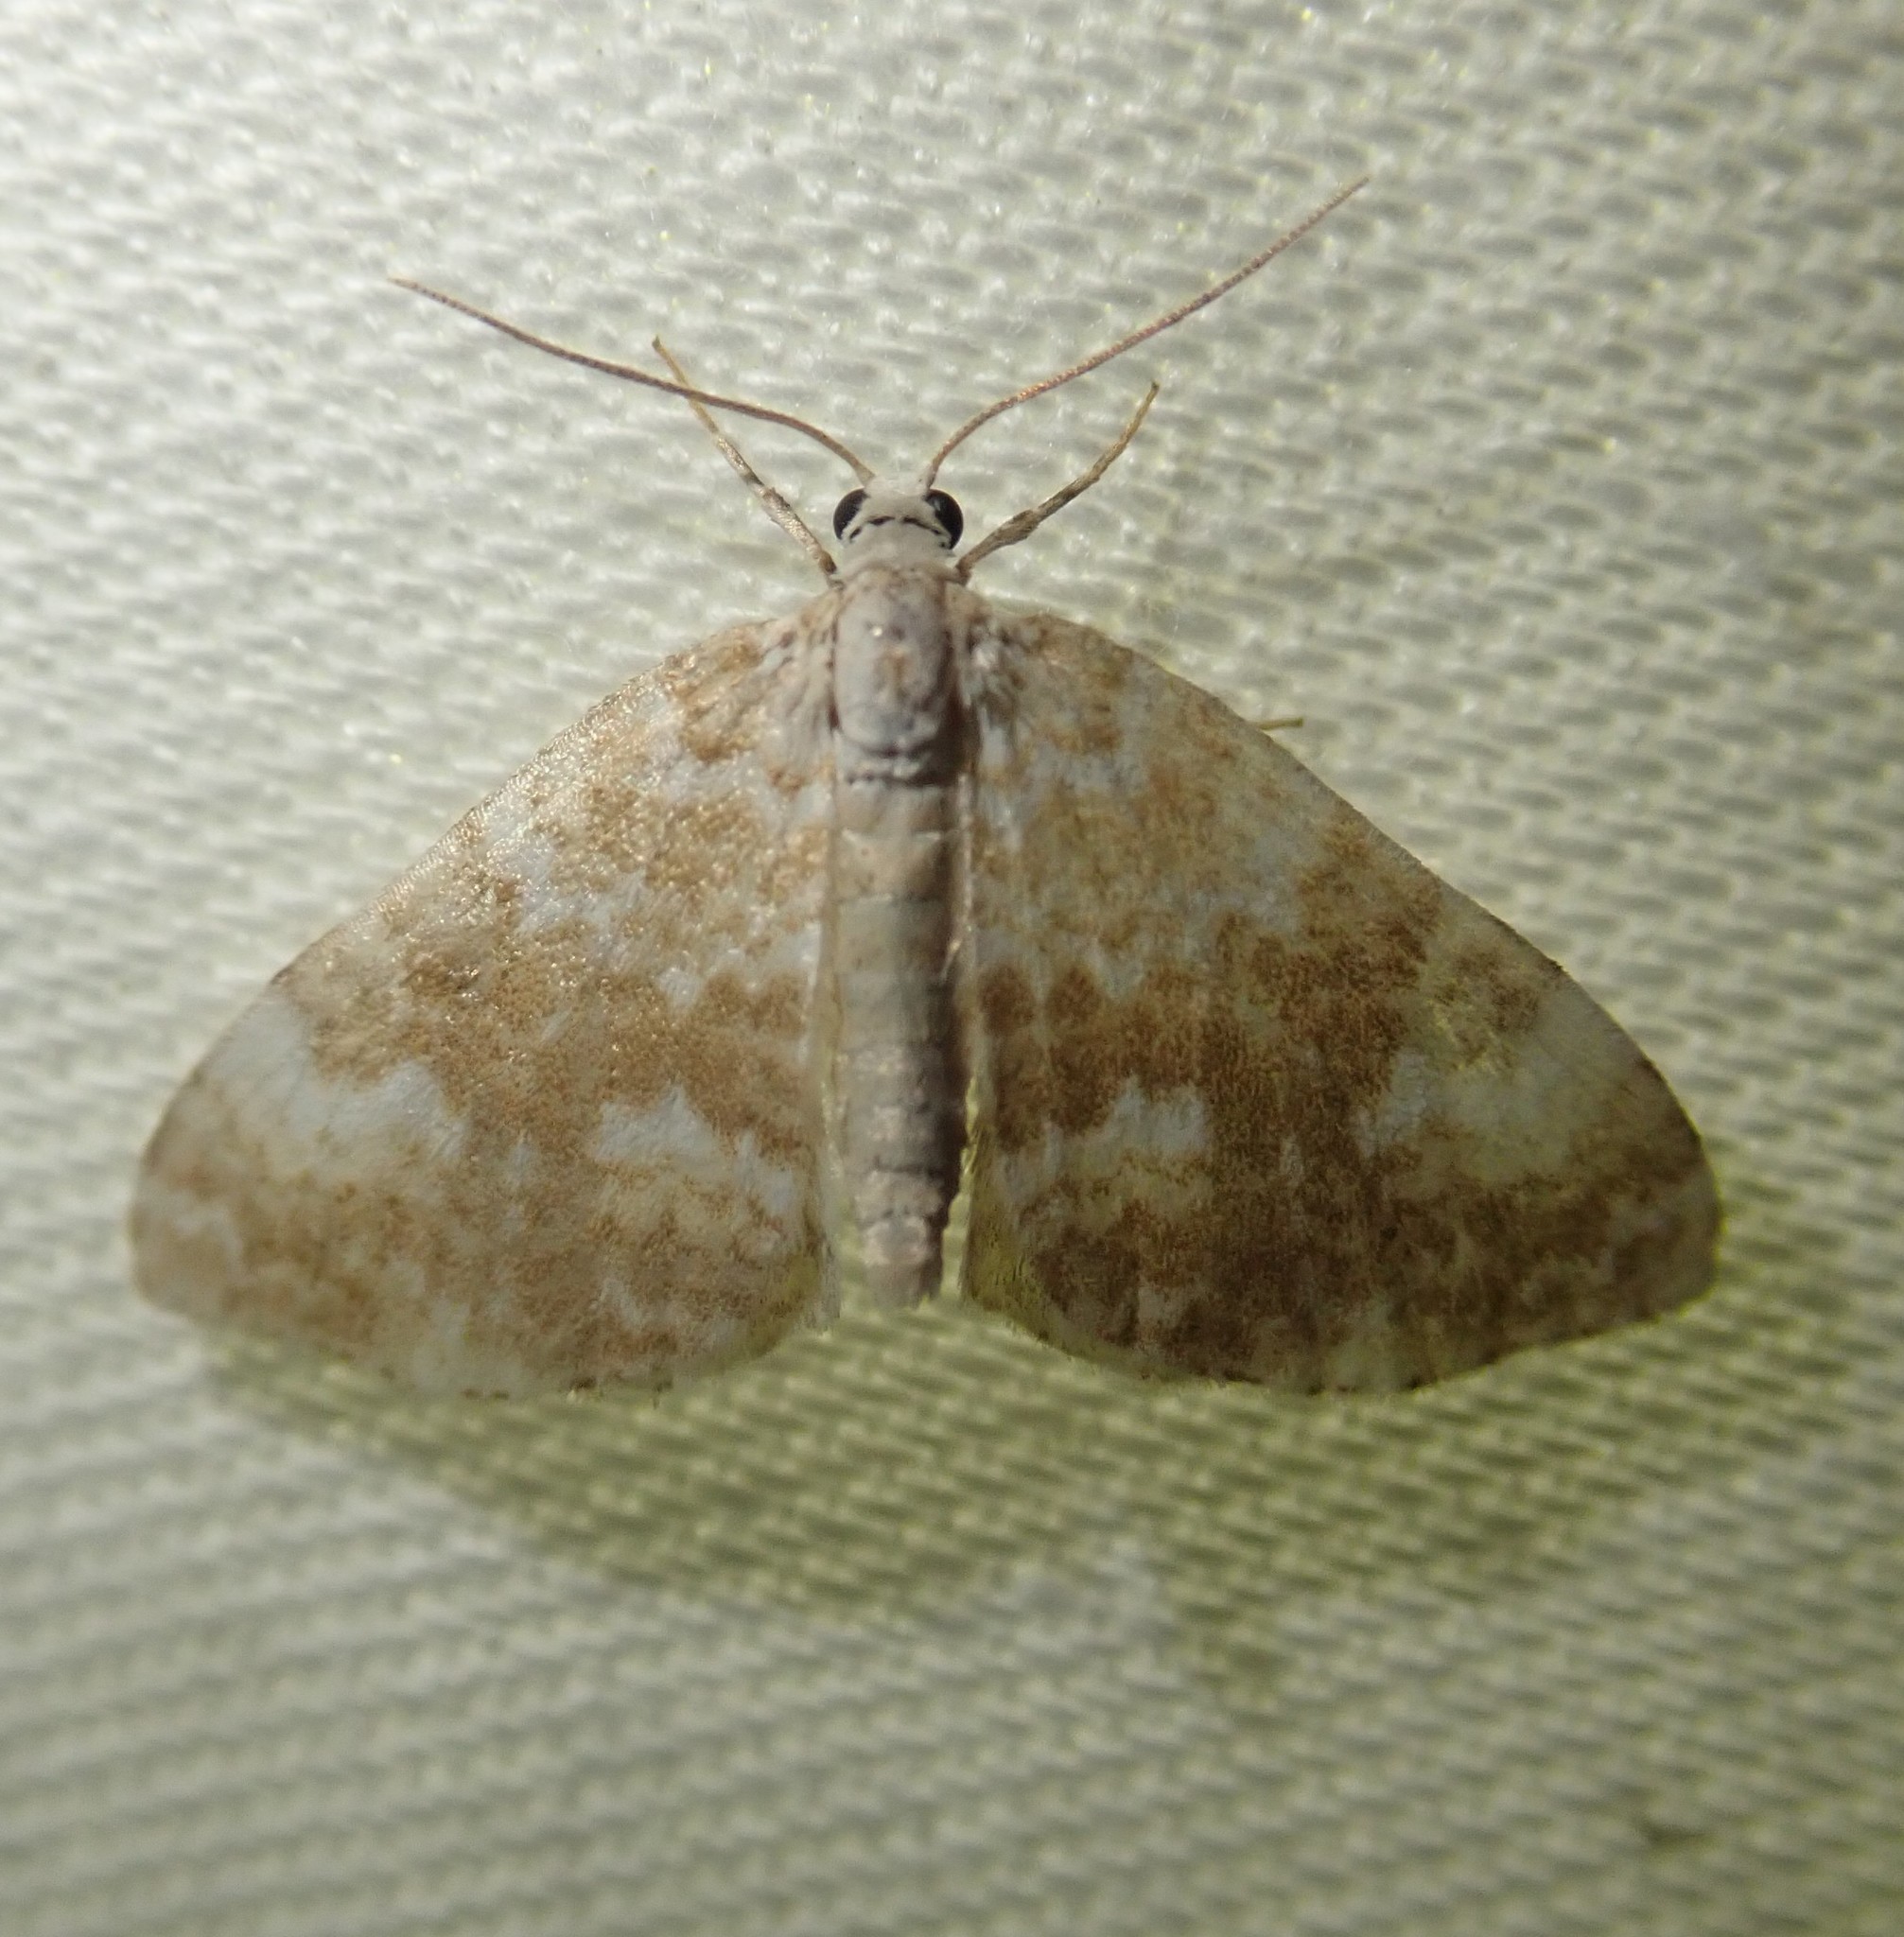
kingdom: Animalia
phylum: Arthropoda
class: Insecta
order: Lepidoptera
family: Geometridae
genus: Perizoma
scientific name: Perizoma flavofasciata
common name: Sandy carpet
